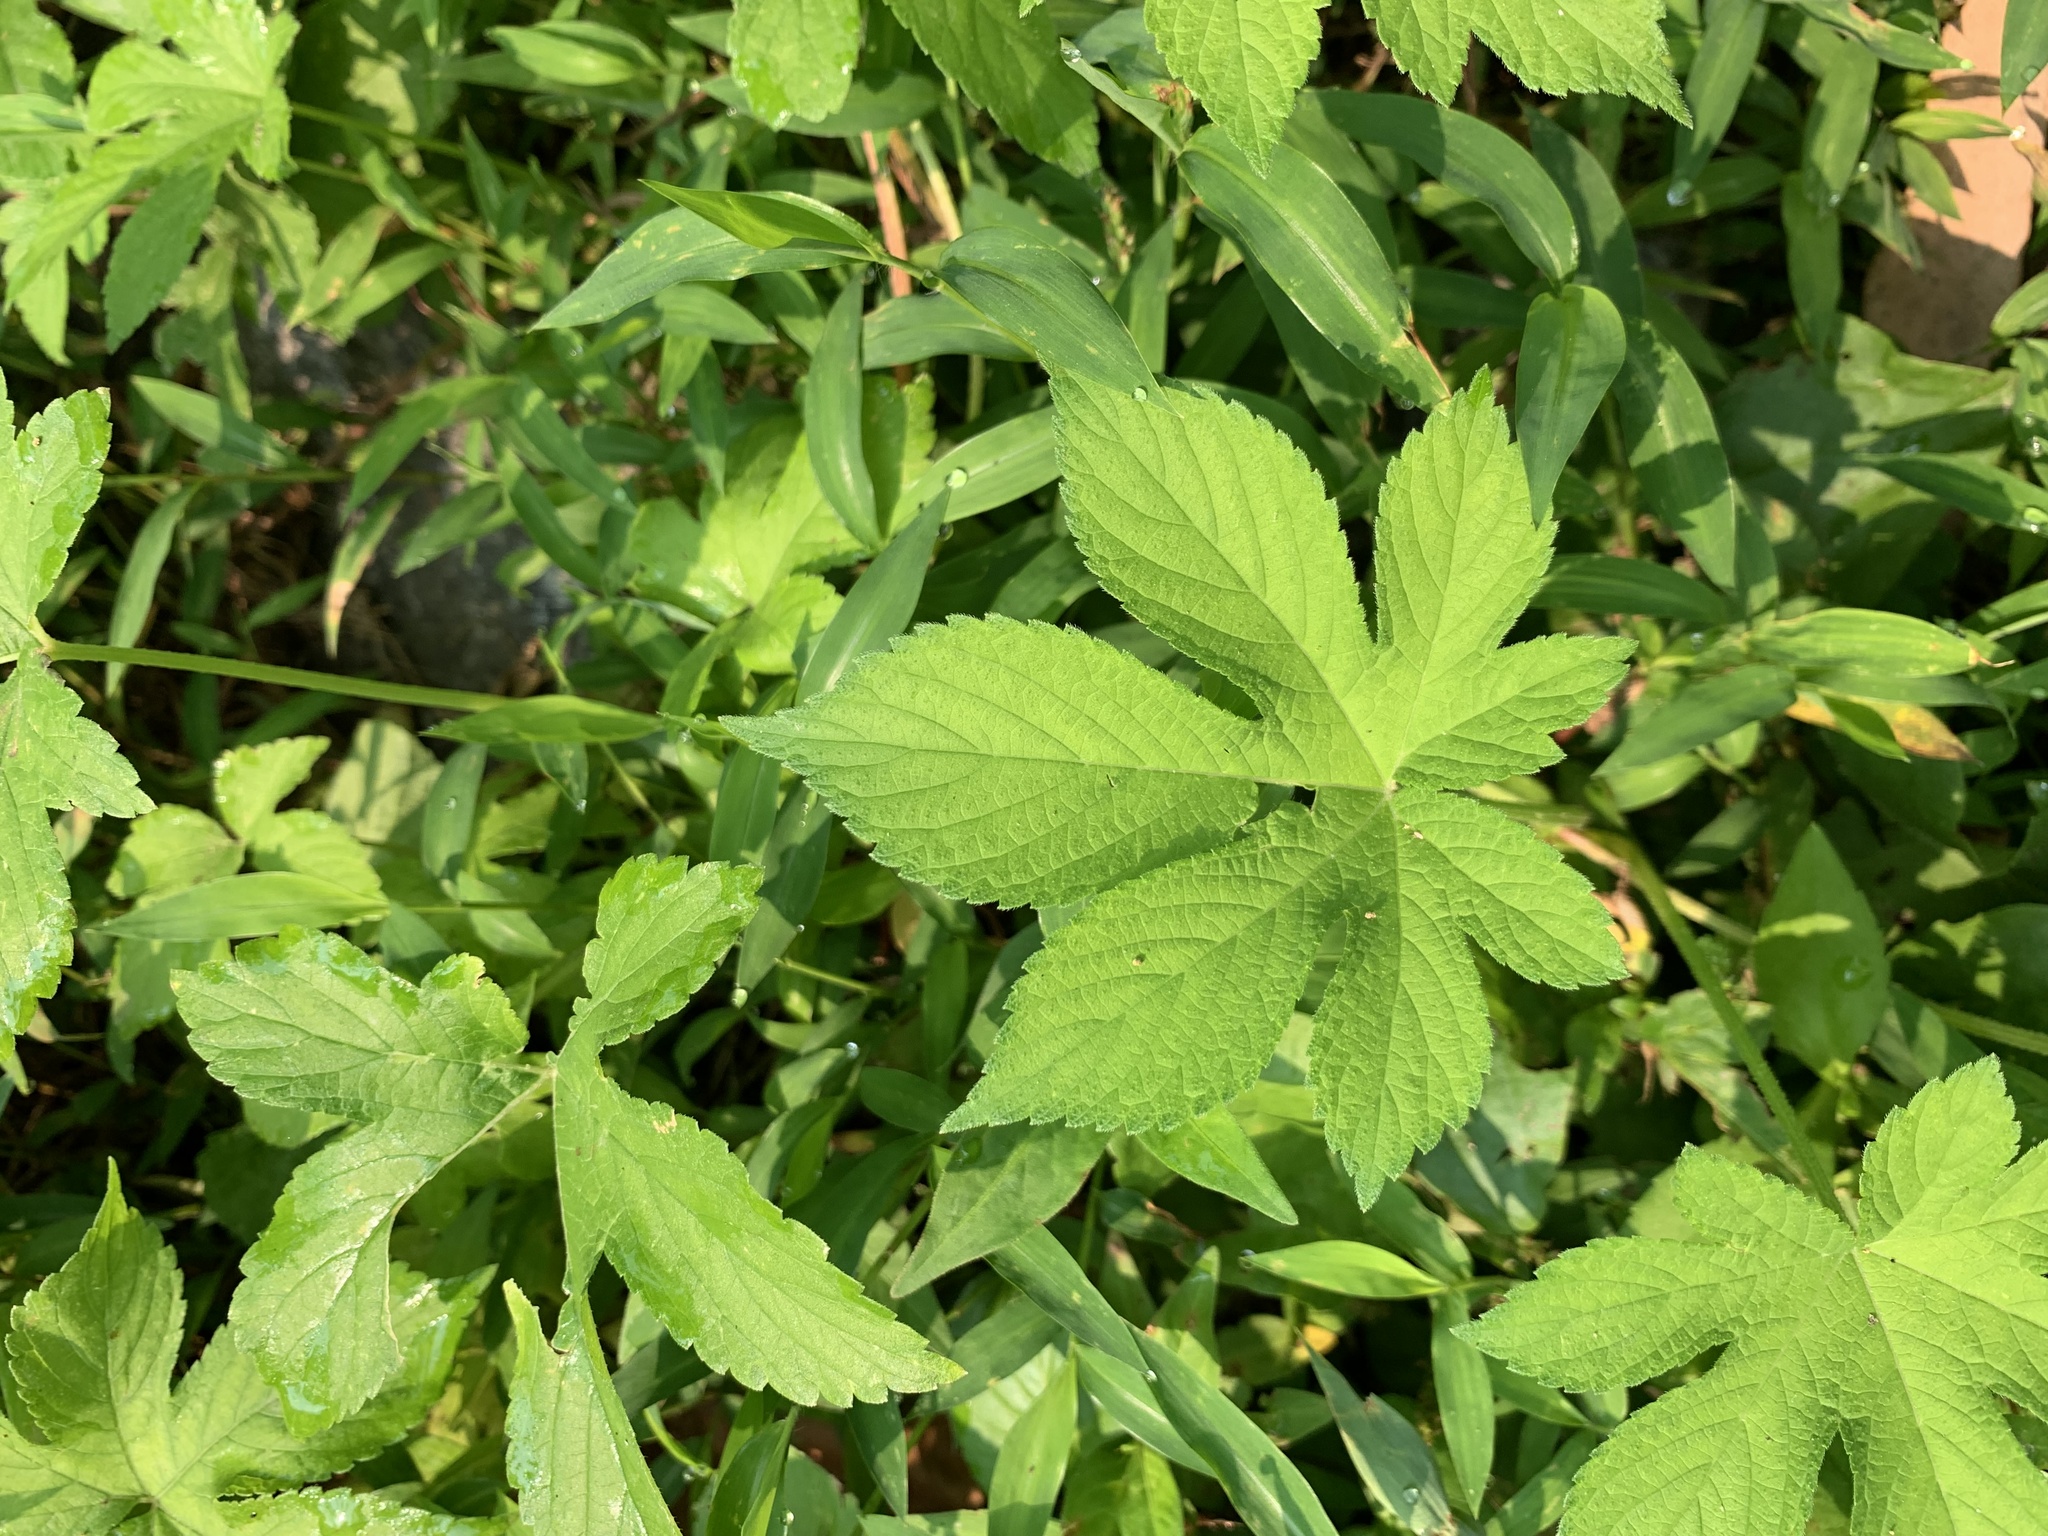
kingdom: Plantae
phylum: Tracheophyta
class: Magnoliopsida
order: Rosales
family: Cannabaceae
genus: Humulus
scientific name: Humulus scandens
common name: Japanese hop
